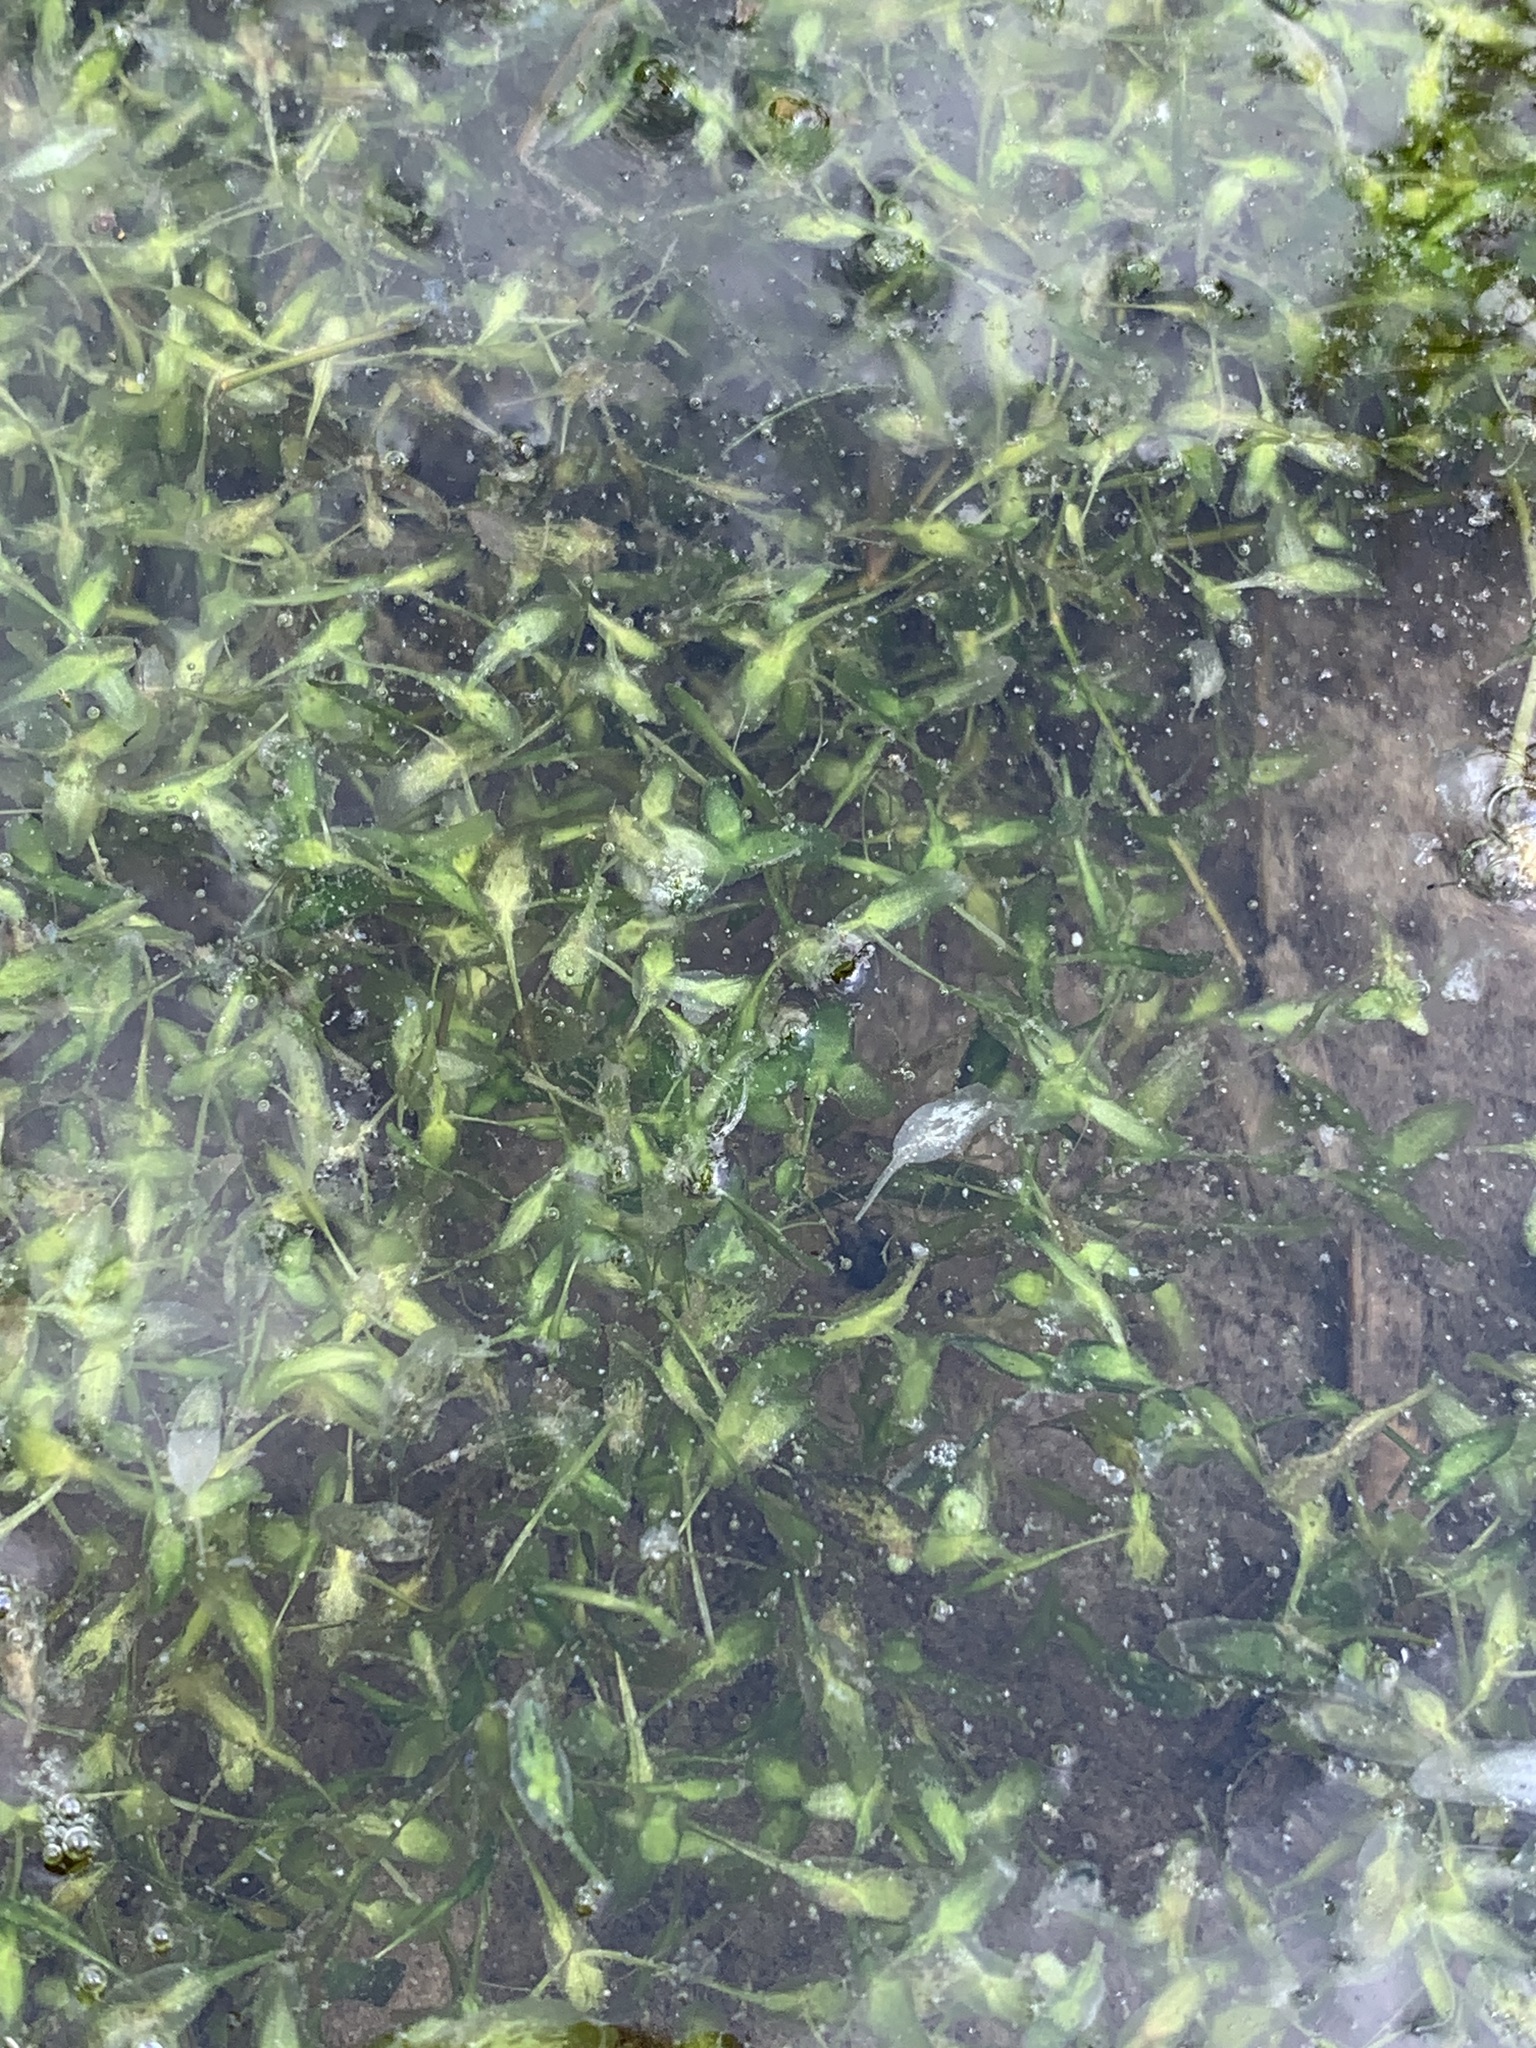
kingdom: Plantae
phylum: Tracheophyta
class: Liliopsida
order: Alismatales
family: Araceae
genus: Lemna
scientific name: Lemna trisulca
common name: Ivy-leaved duckweed
